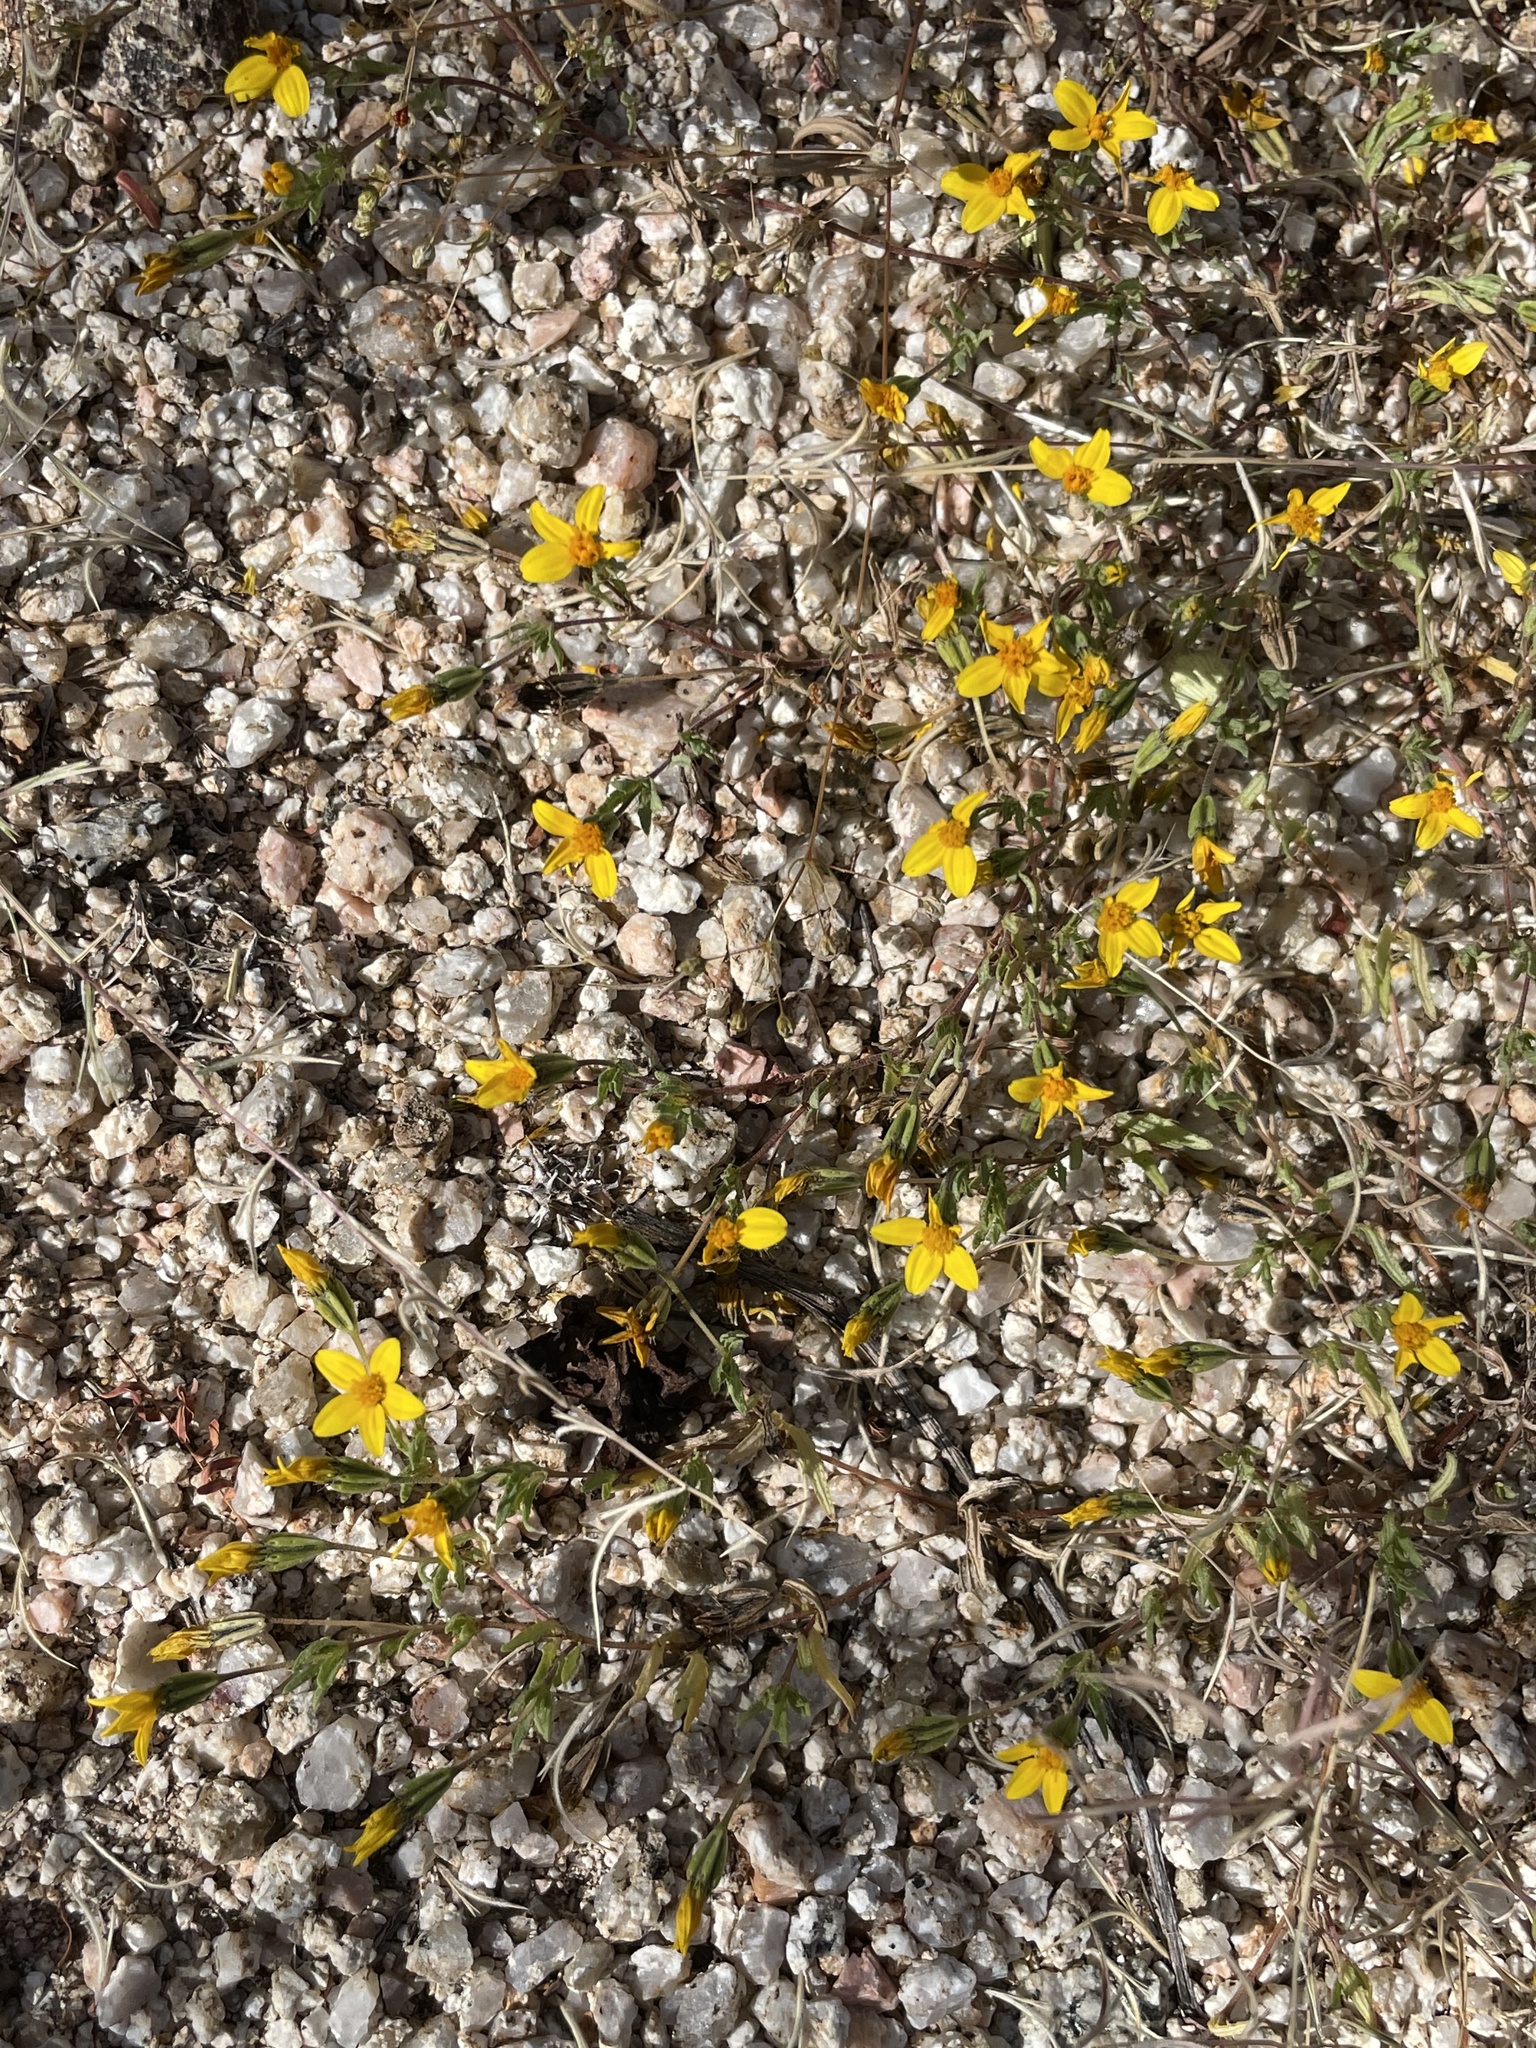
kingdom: Plantae
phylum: Tracheophyta
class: Magnoliopsida
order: Asterales
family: Asteraceae
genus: Pectis
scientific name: Pectis multiseta
